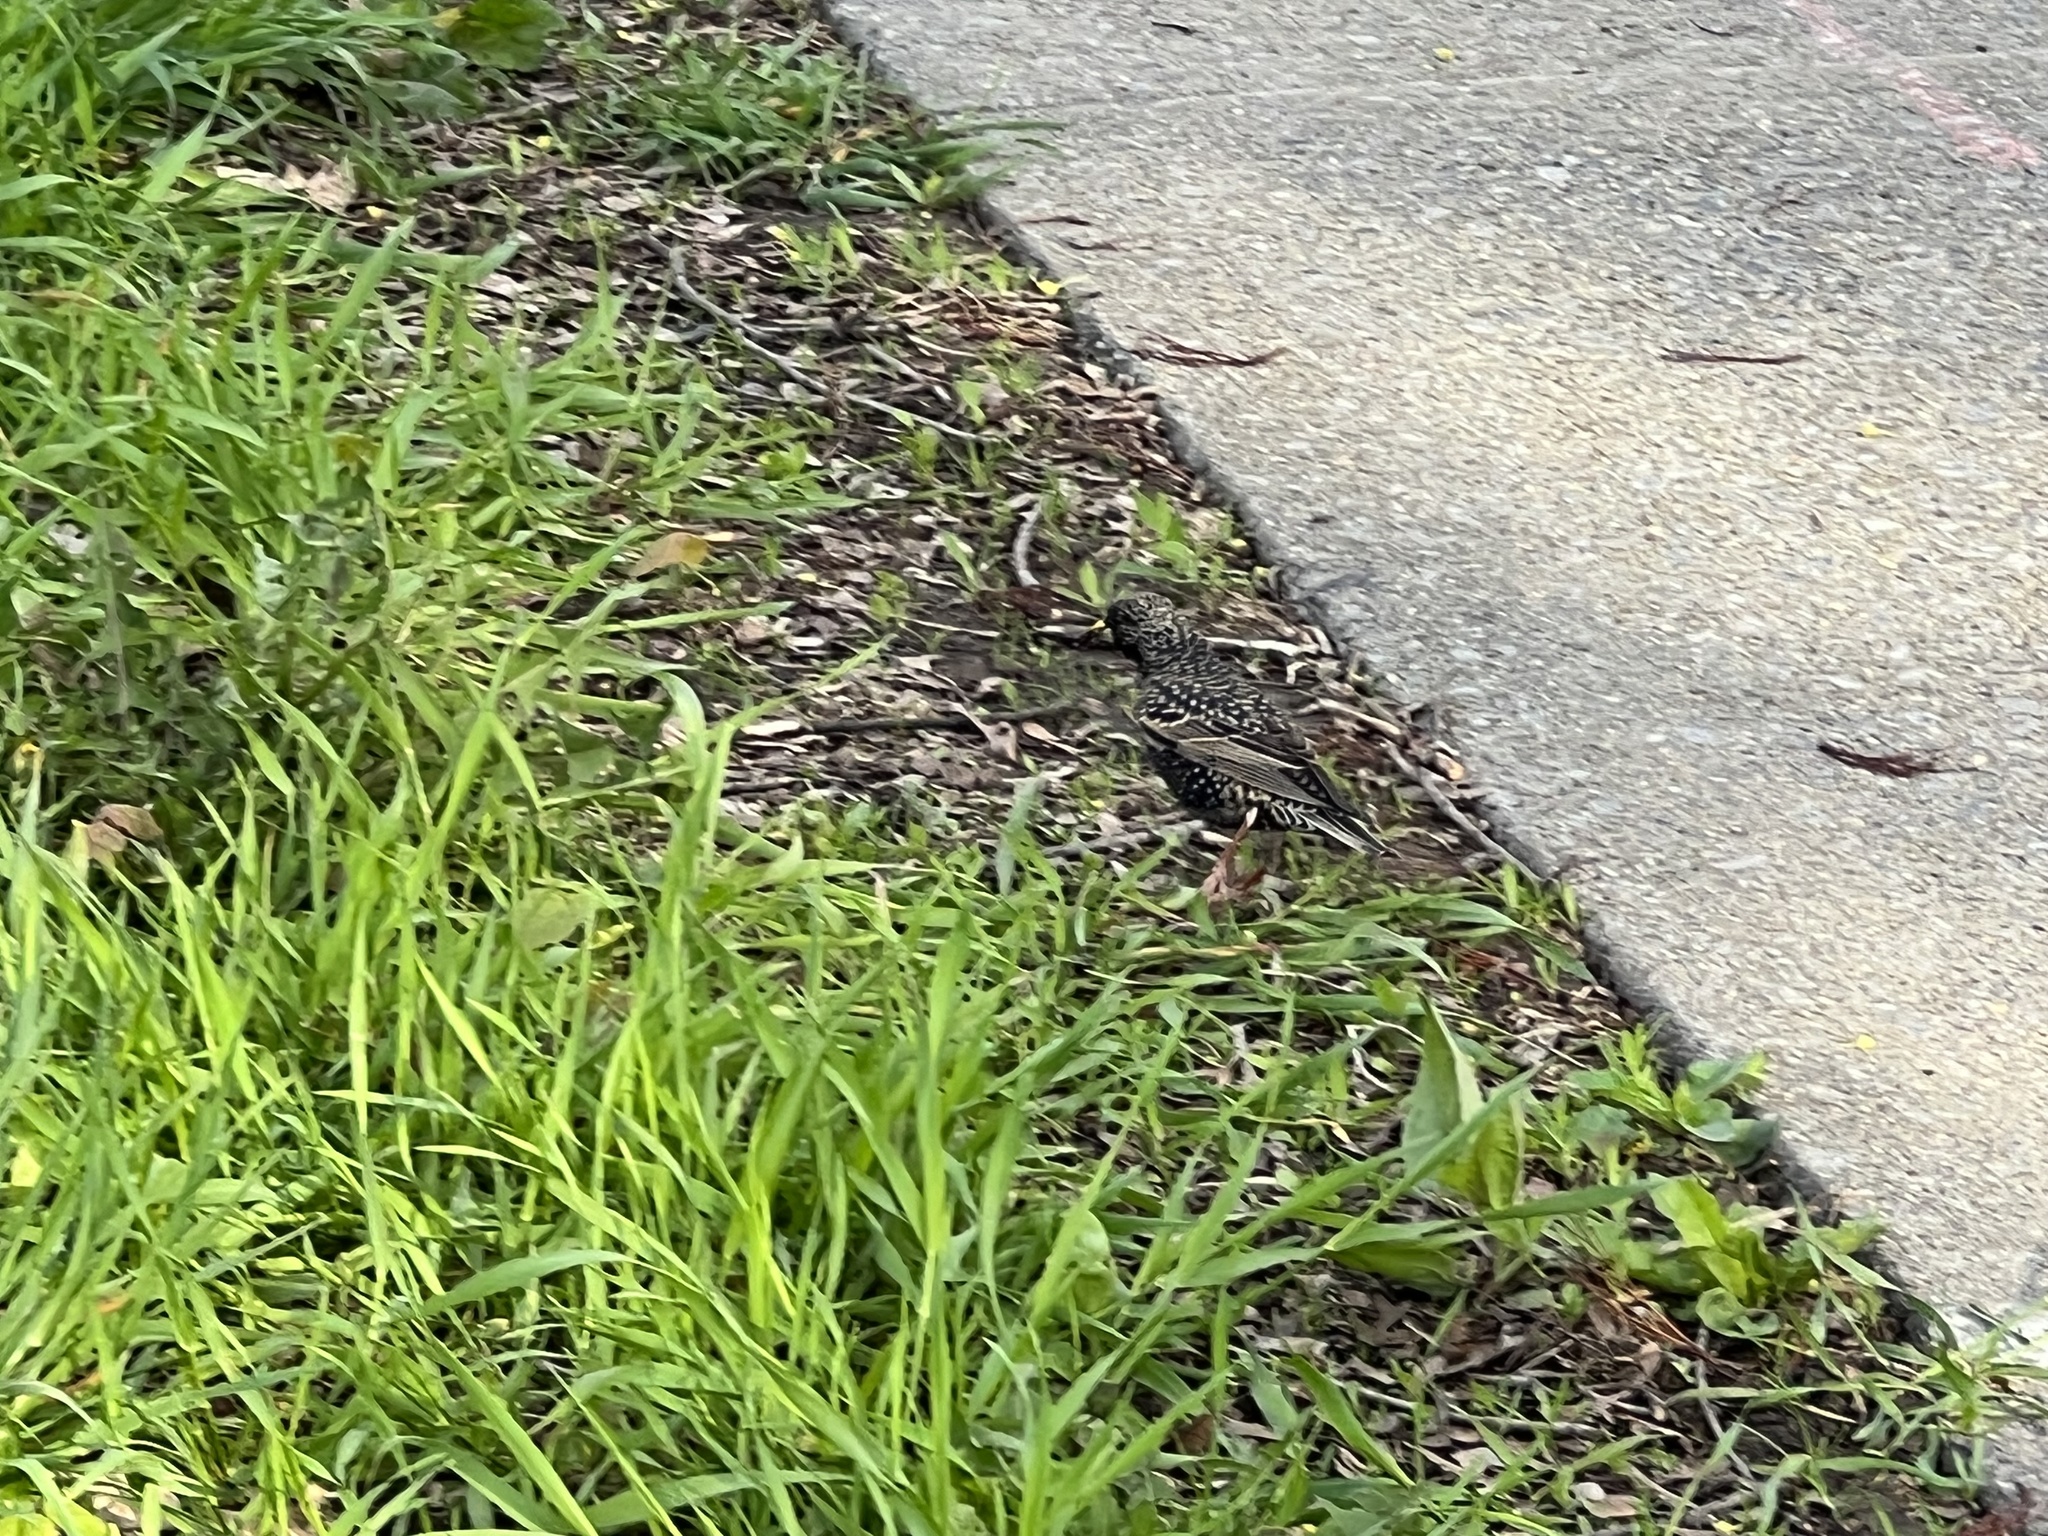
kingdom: Animalia
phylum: Chordata
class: Aves
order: Passeriformes
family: Sturnidae
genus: Sturnus
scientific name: Sturnus vulgaris
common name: Common starling
